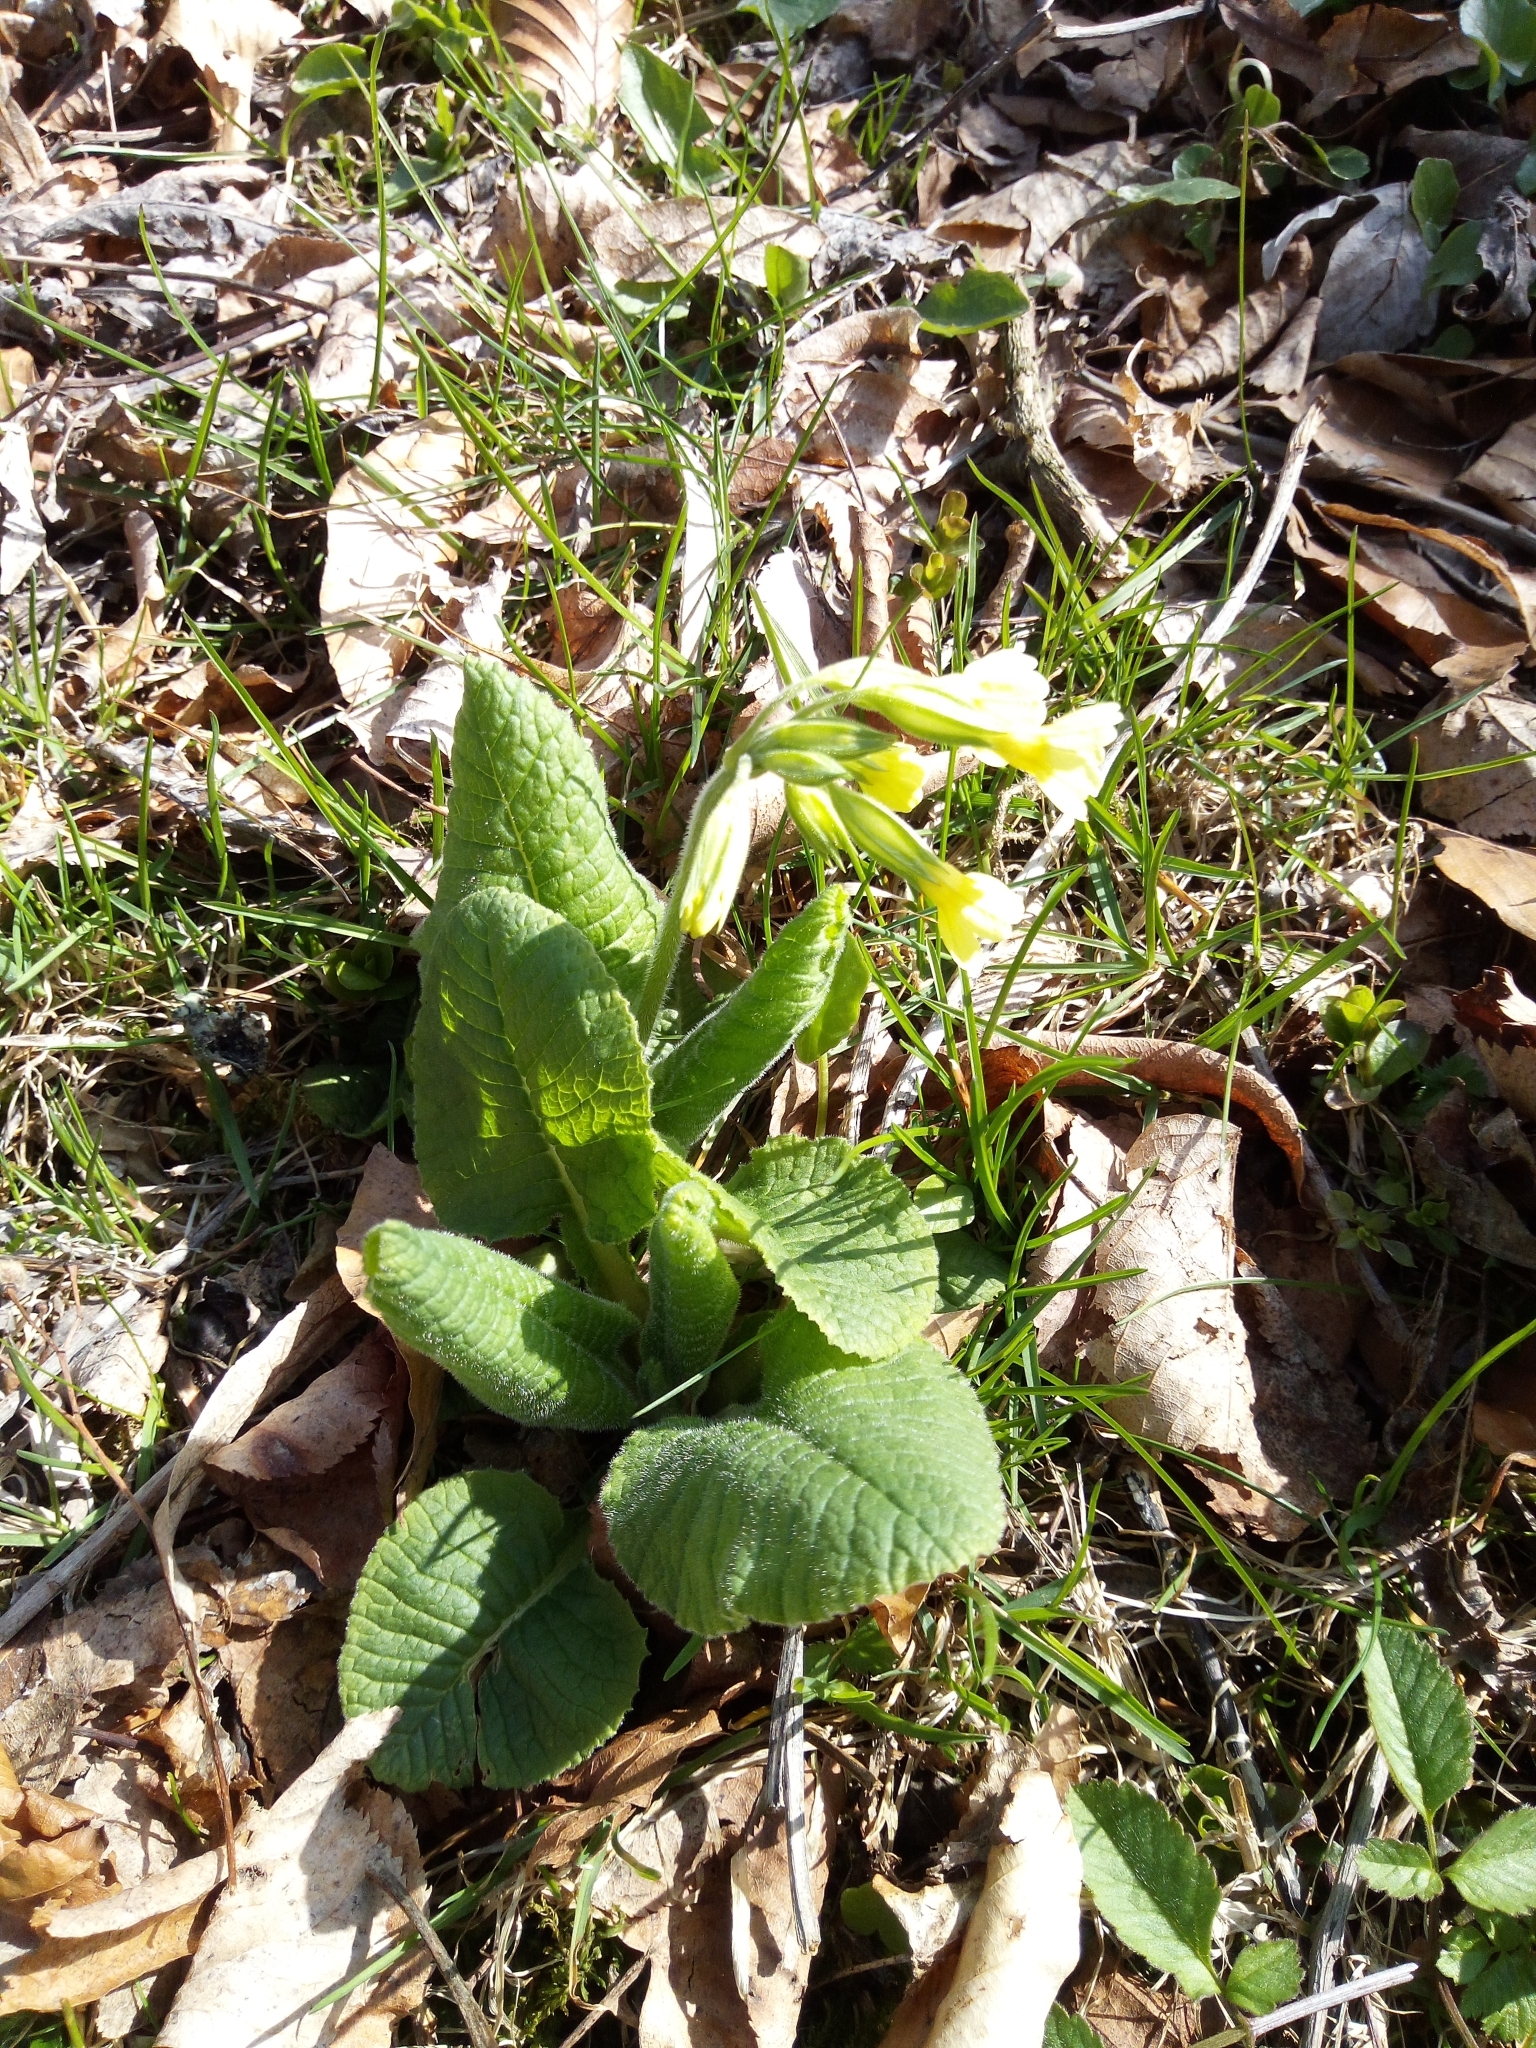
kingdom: Plantae
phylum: Tracheophyta
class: Magnoliopsida
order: Ericales
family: Primulaceae
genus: Primula
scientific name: Primula elatior
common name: Oxlip
